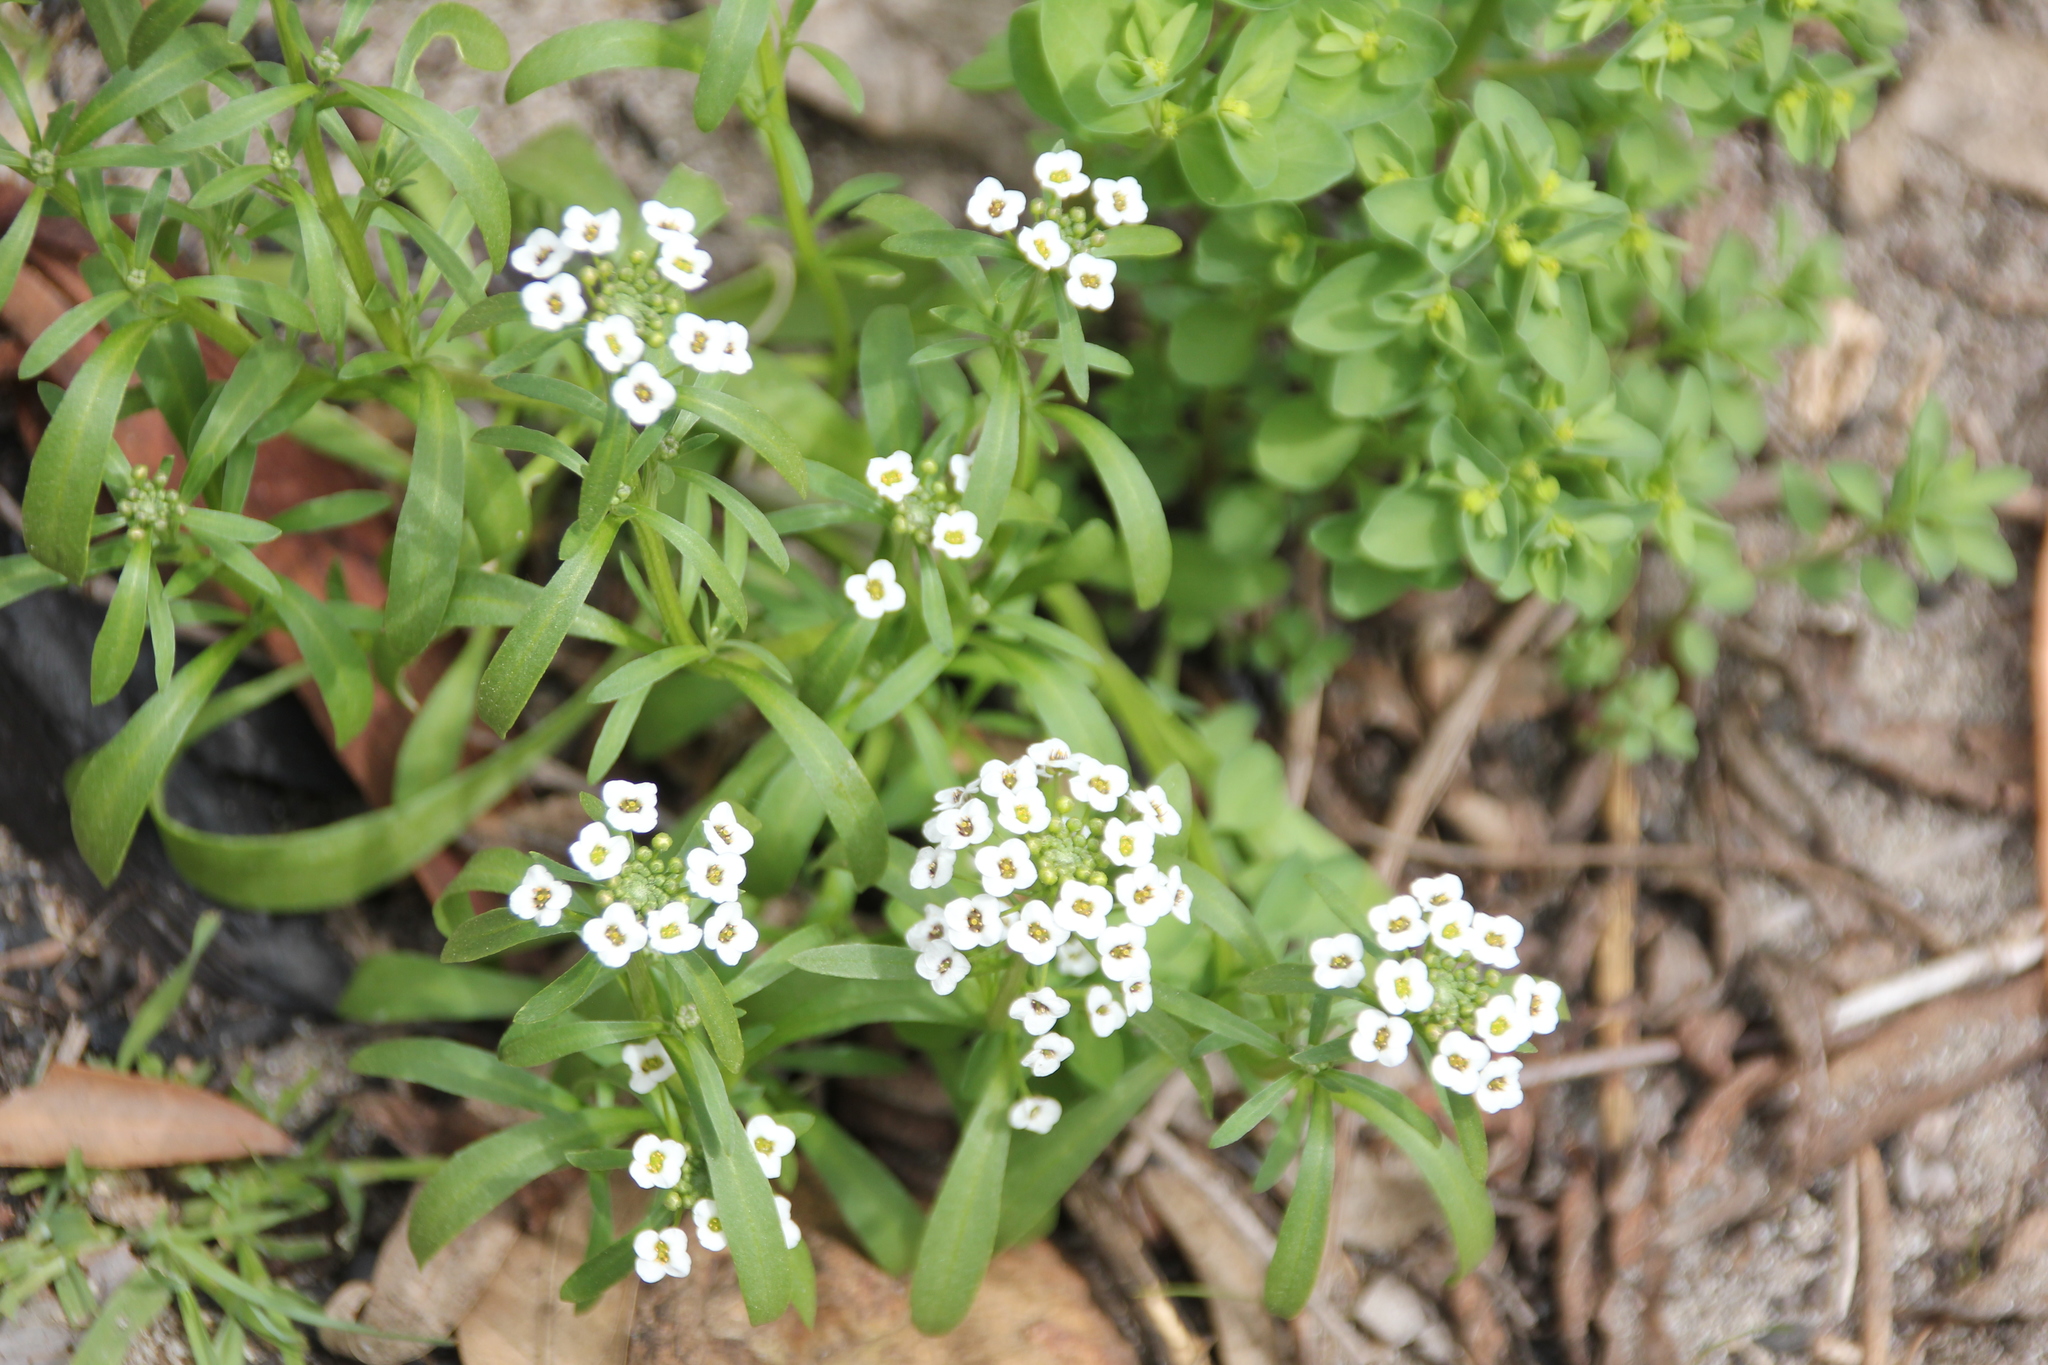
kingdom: Plantae
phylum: Tracheophyta
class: Magnoliopsida
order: Brassicales
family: Brassicaceae
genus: Lobularia
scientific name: Lobularia maritima
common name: Sweet alison
